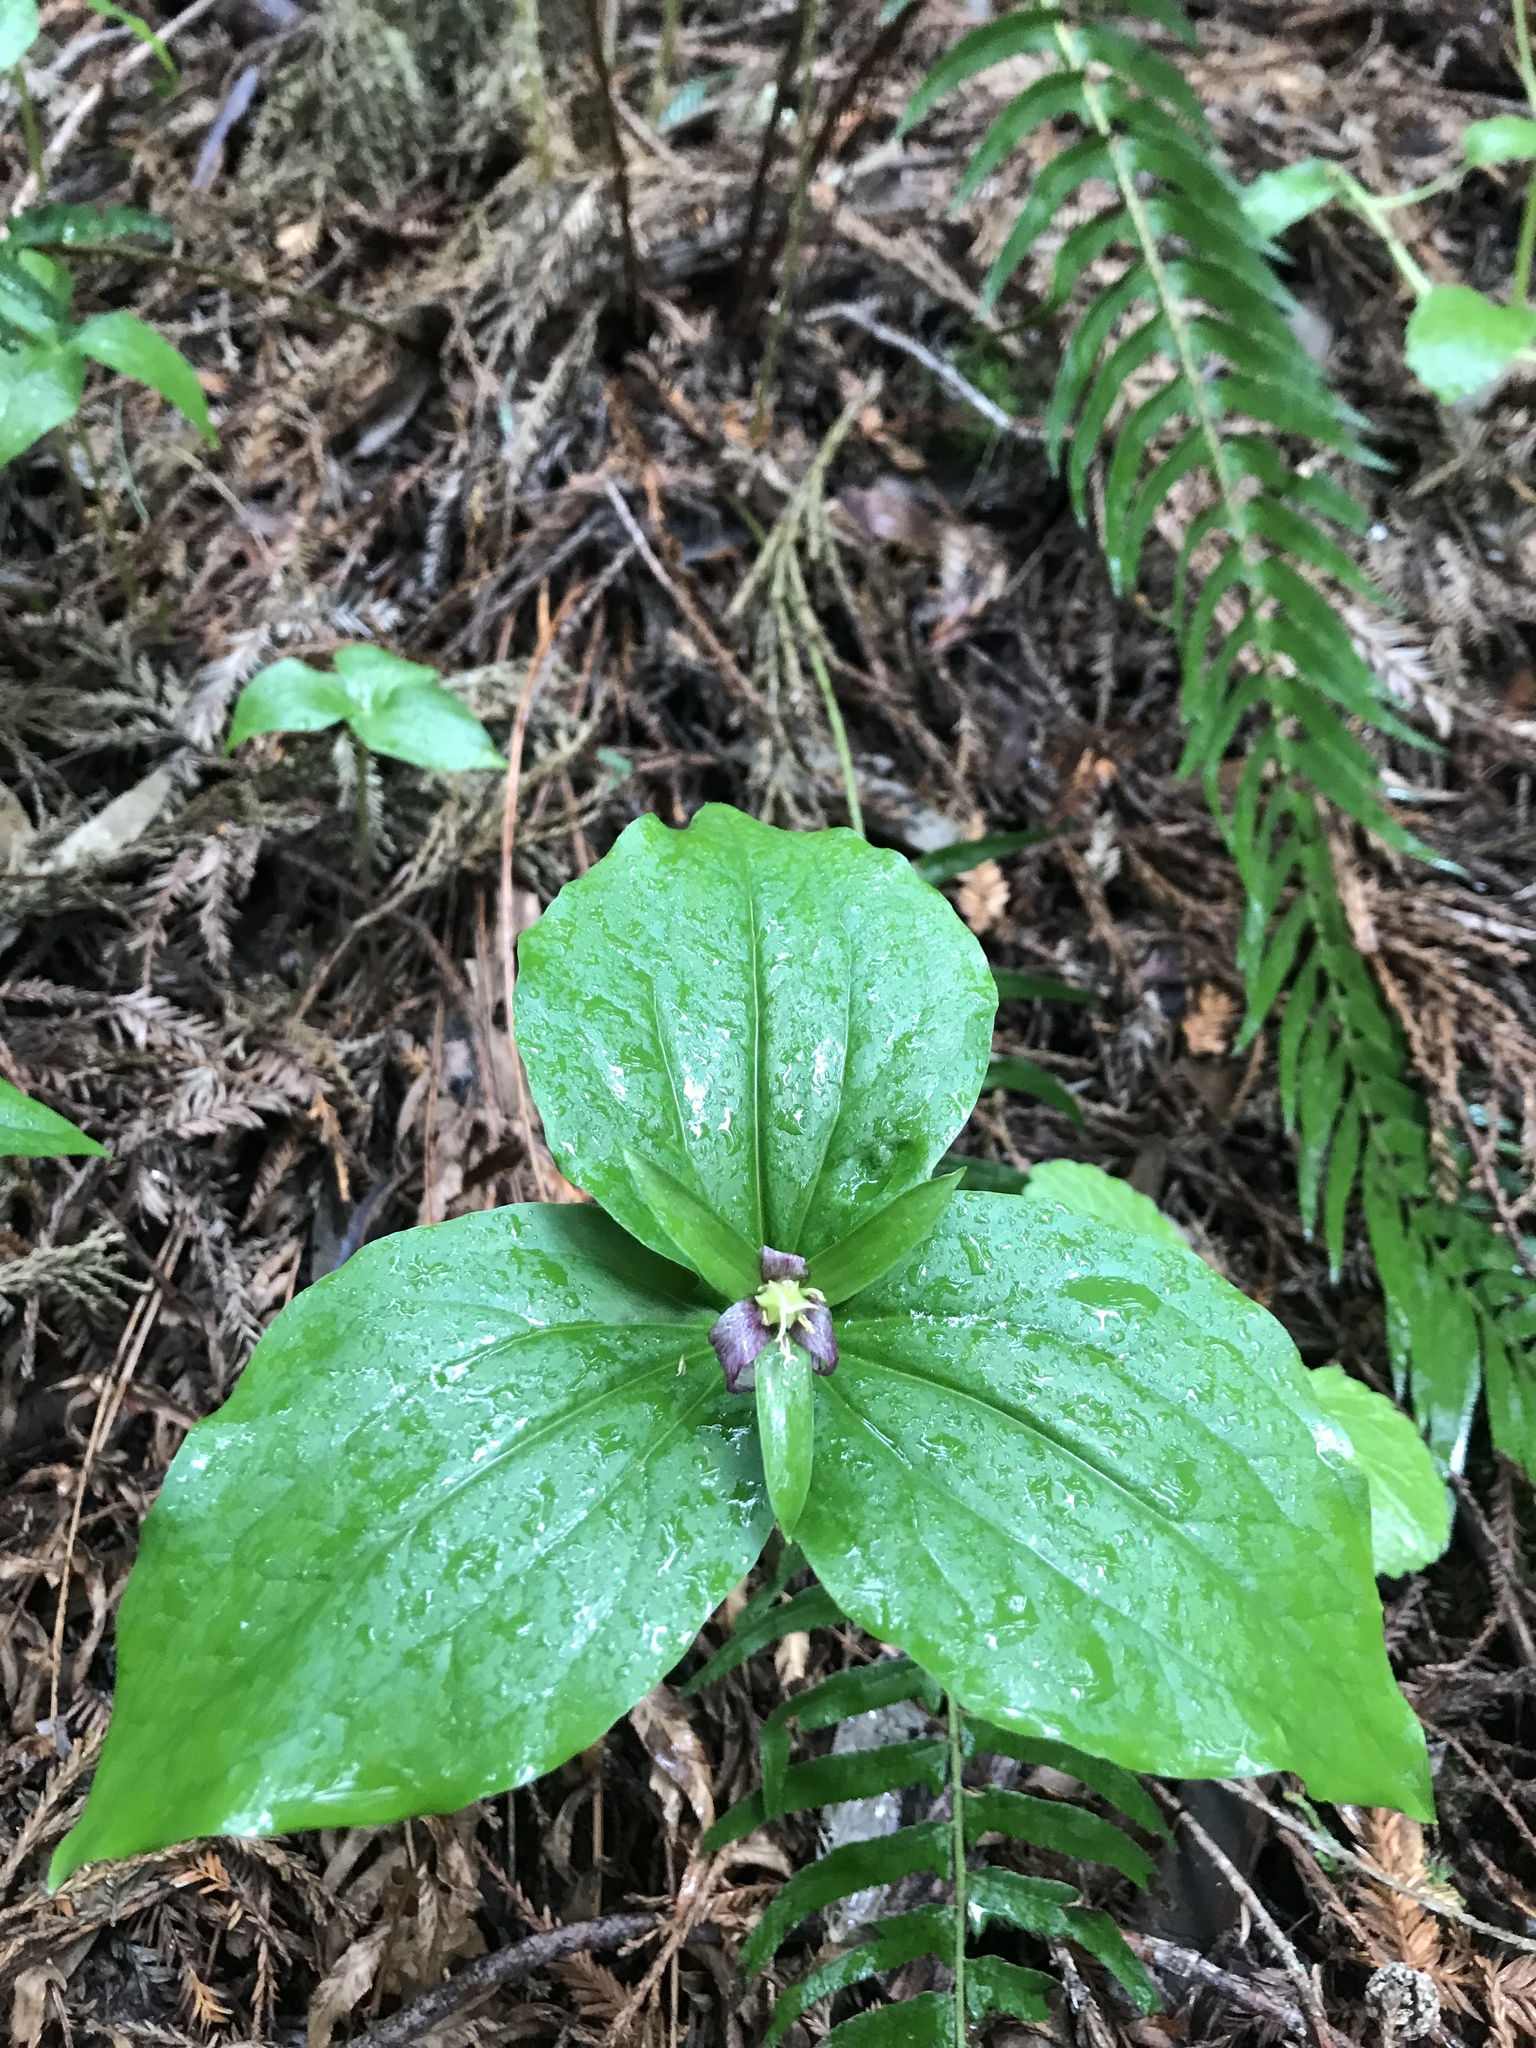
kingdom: Plantae
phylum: Tracheophyta
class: Liliopsida
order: Liliales
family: Melanthiaceae
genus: Trillium
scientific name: Trillium ovatum
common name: Pacific trillium
